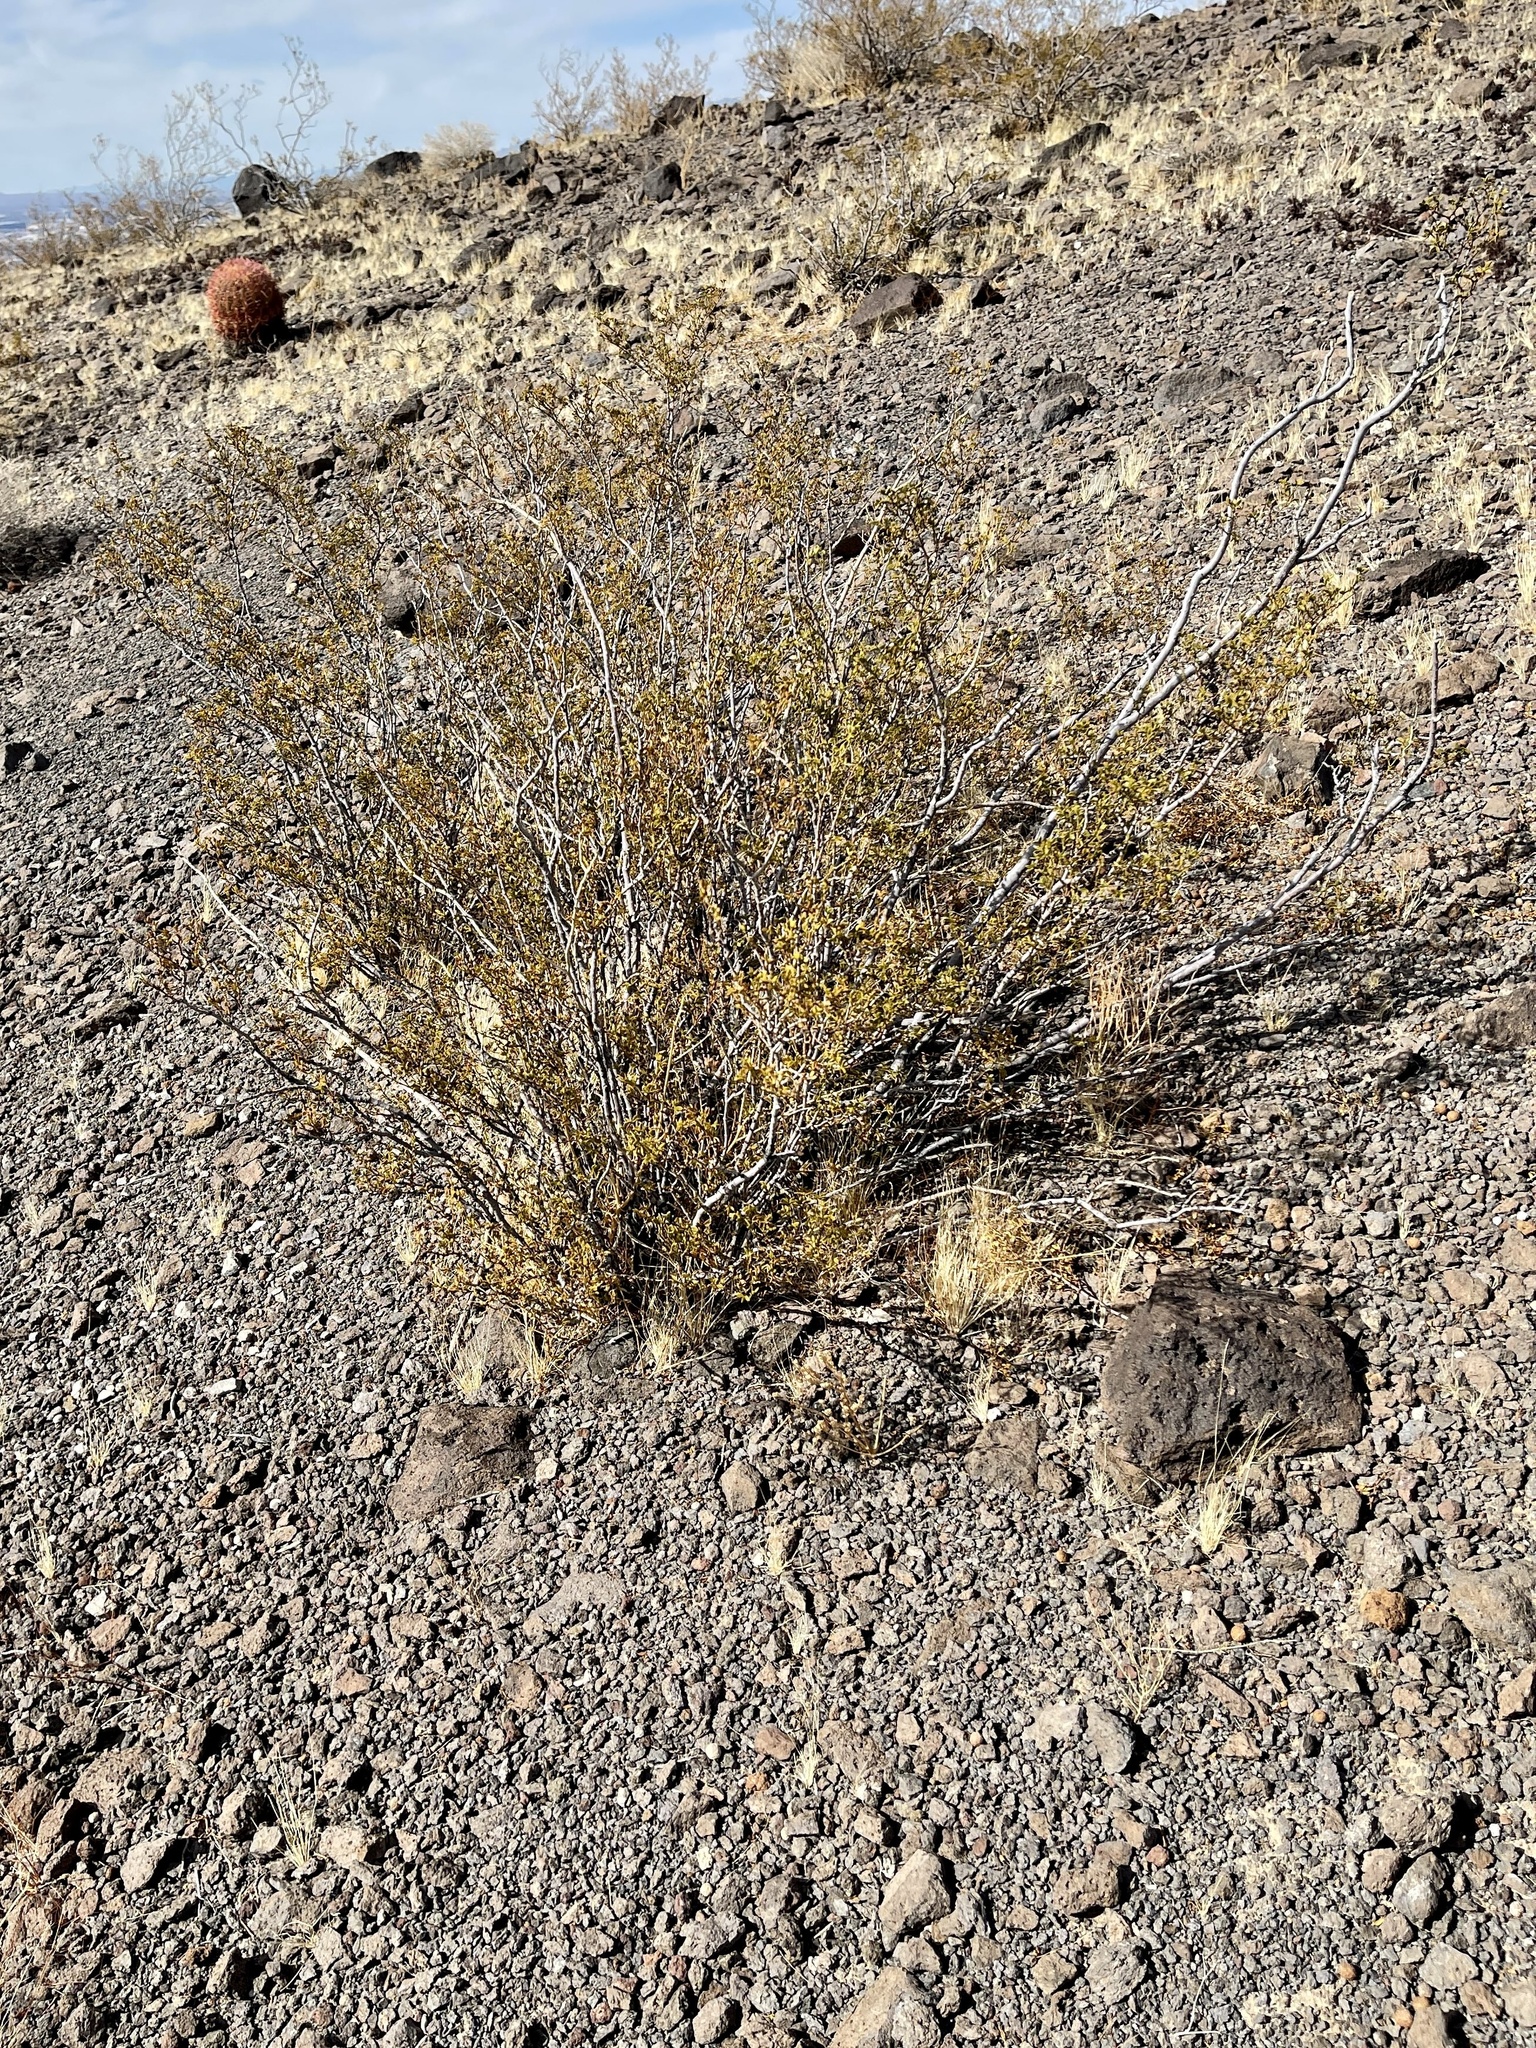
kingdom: Plantae
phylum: Tracheophyta
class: Magnoliopsida
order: Zygophyllales
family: Zygophyllaceae
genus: Larrea
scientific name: Larrea tridentata
